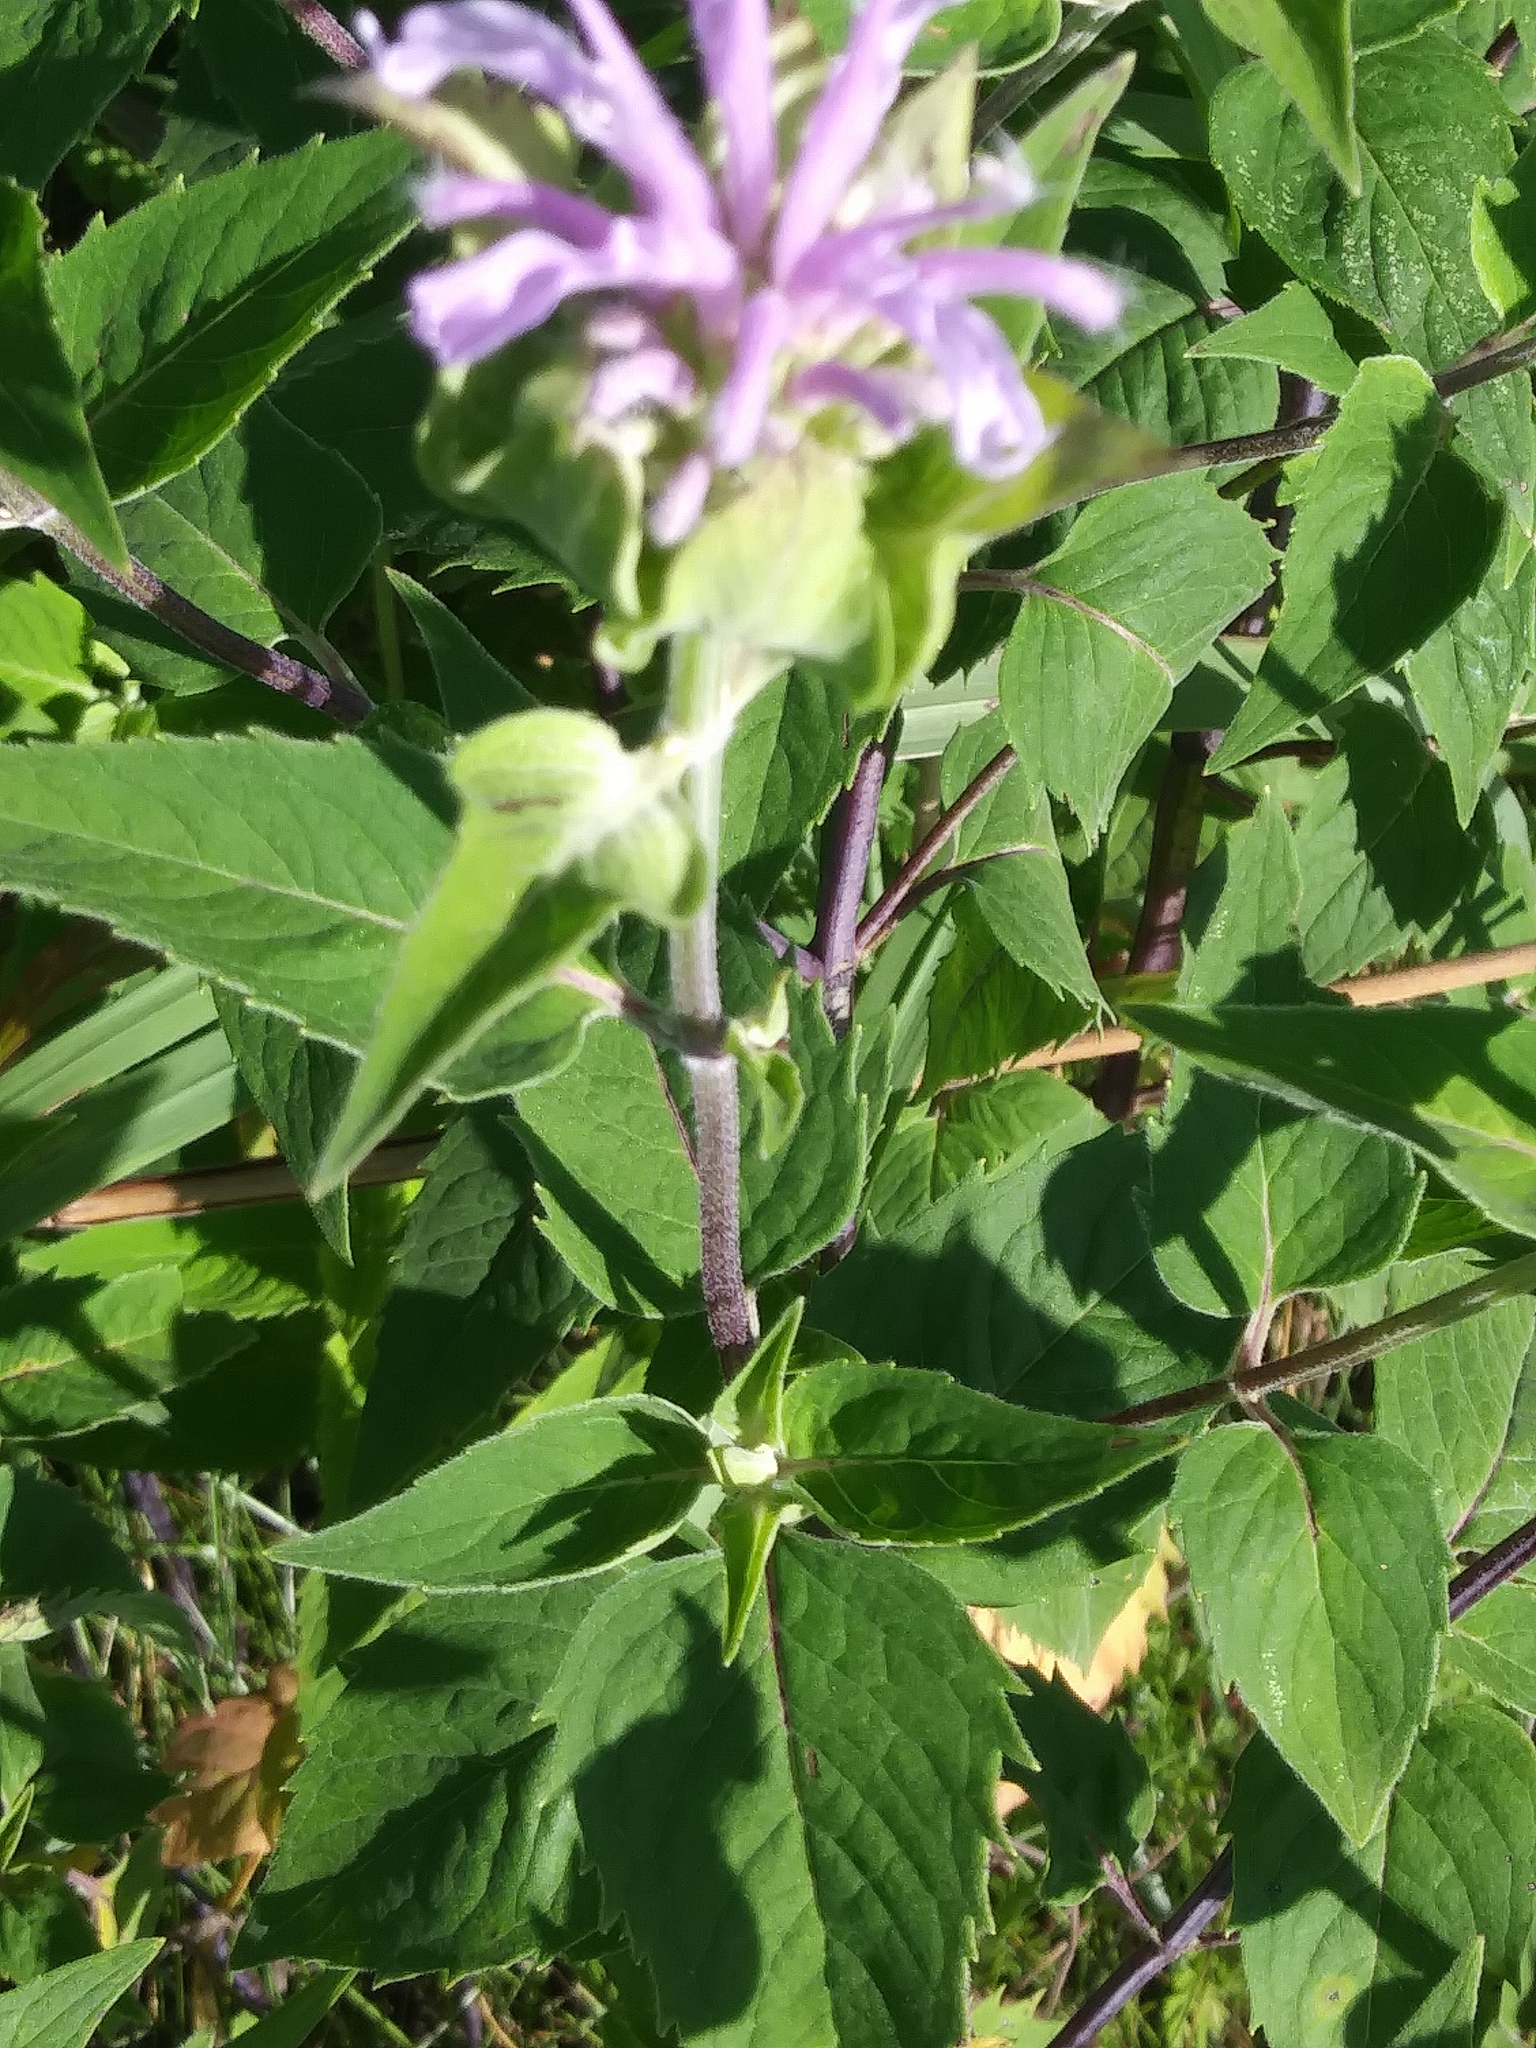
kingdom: Plantae
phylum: Tracheophyta
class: Magnoliopsida
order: Lamiales
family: Lamiaceae
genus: Monarda
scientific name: Monarda fistulosa
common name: Purple beebalm
